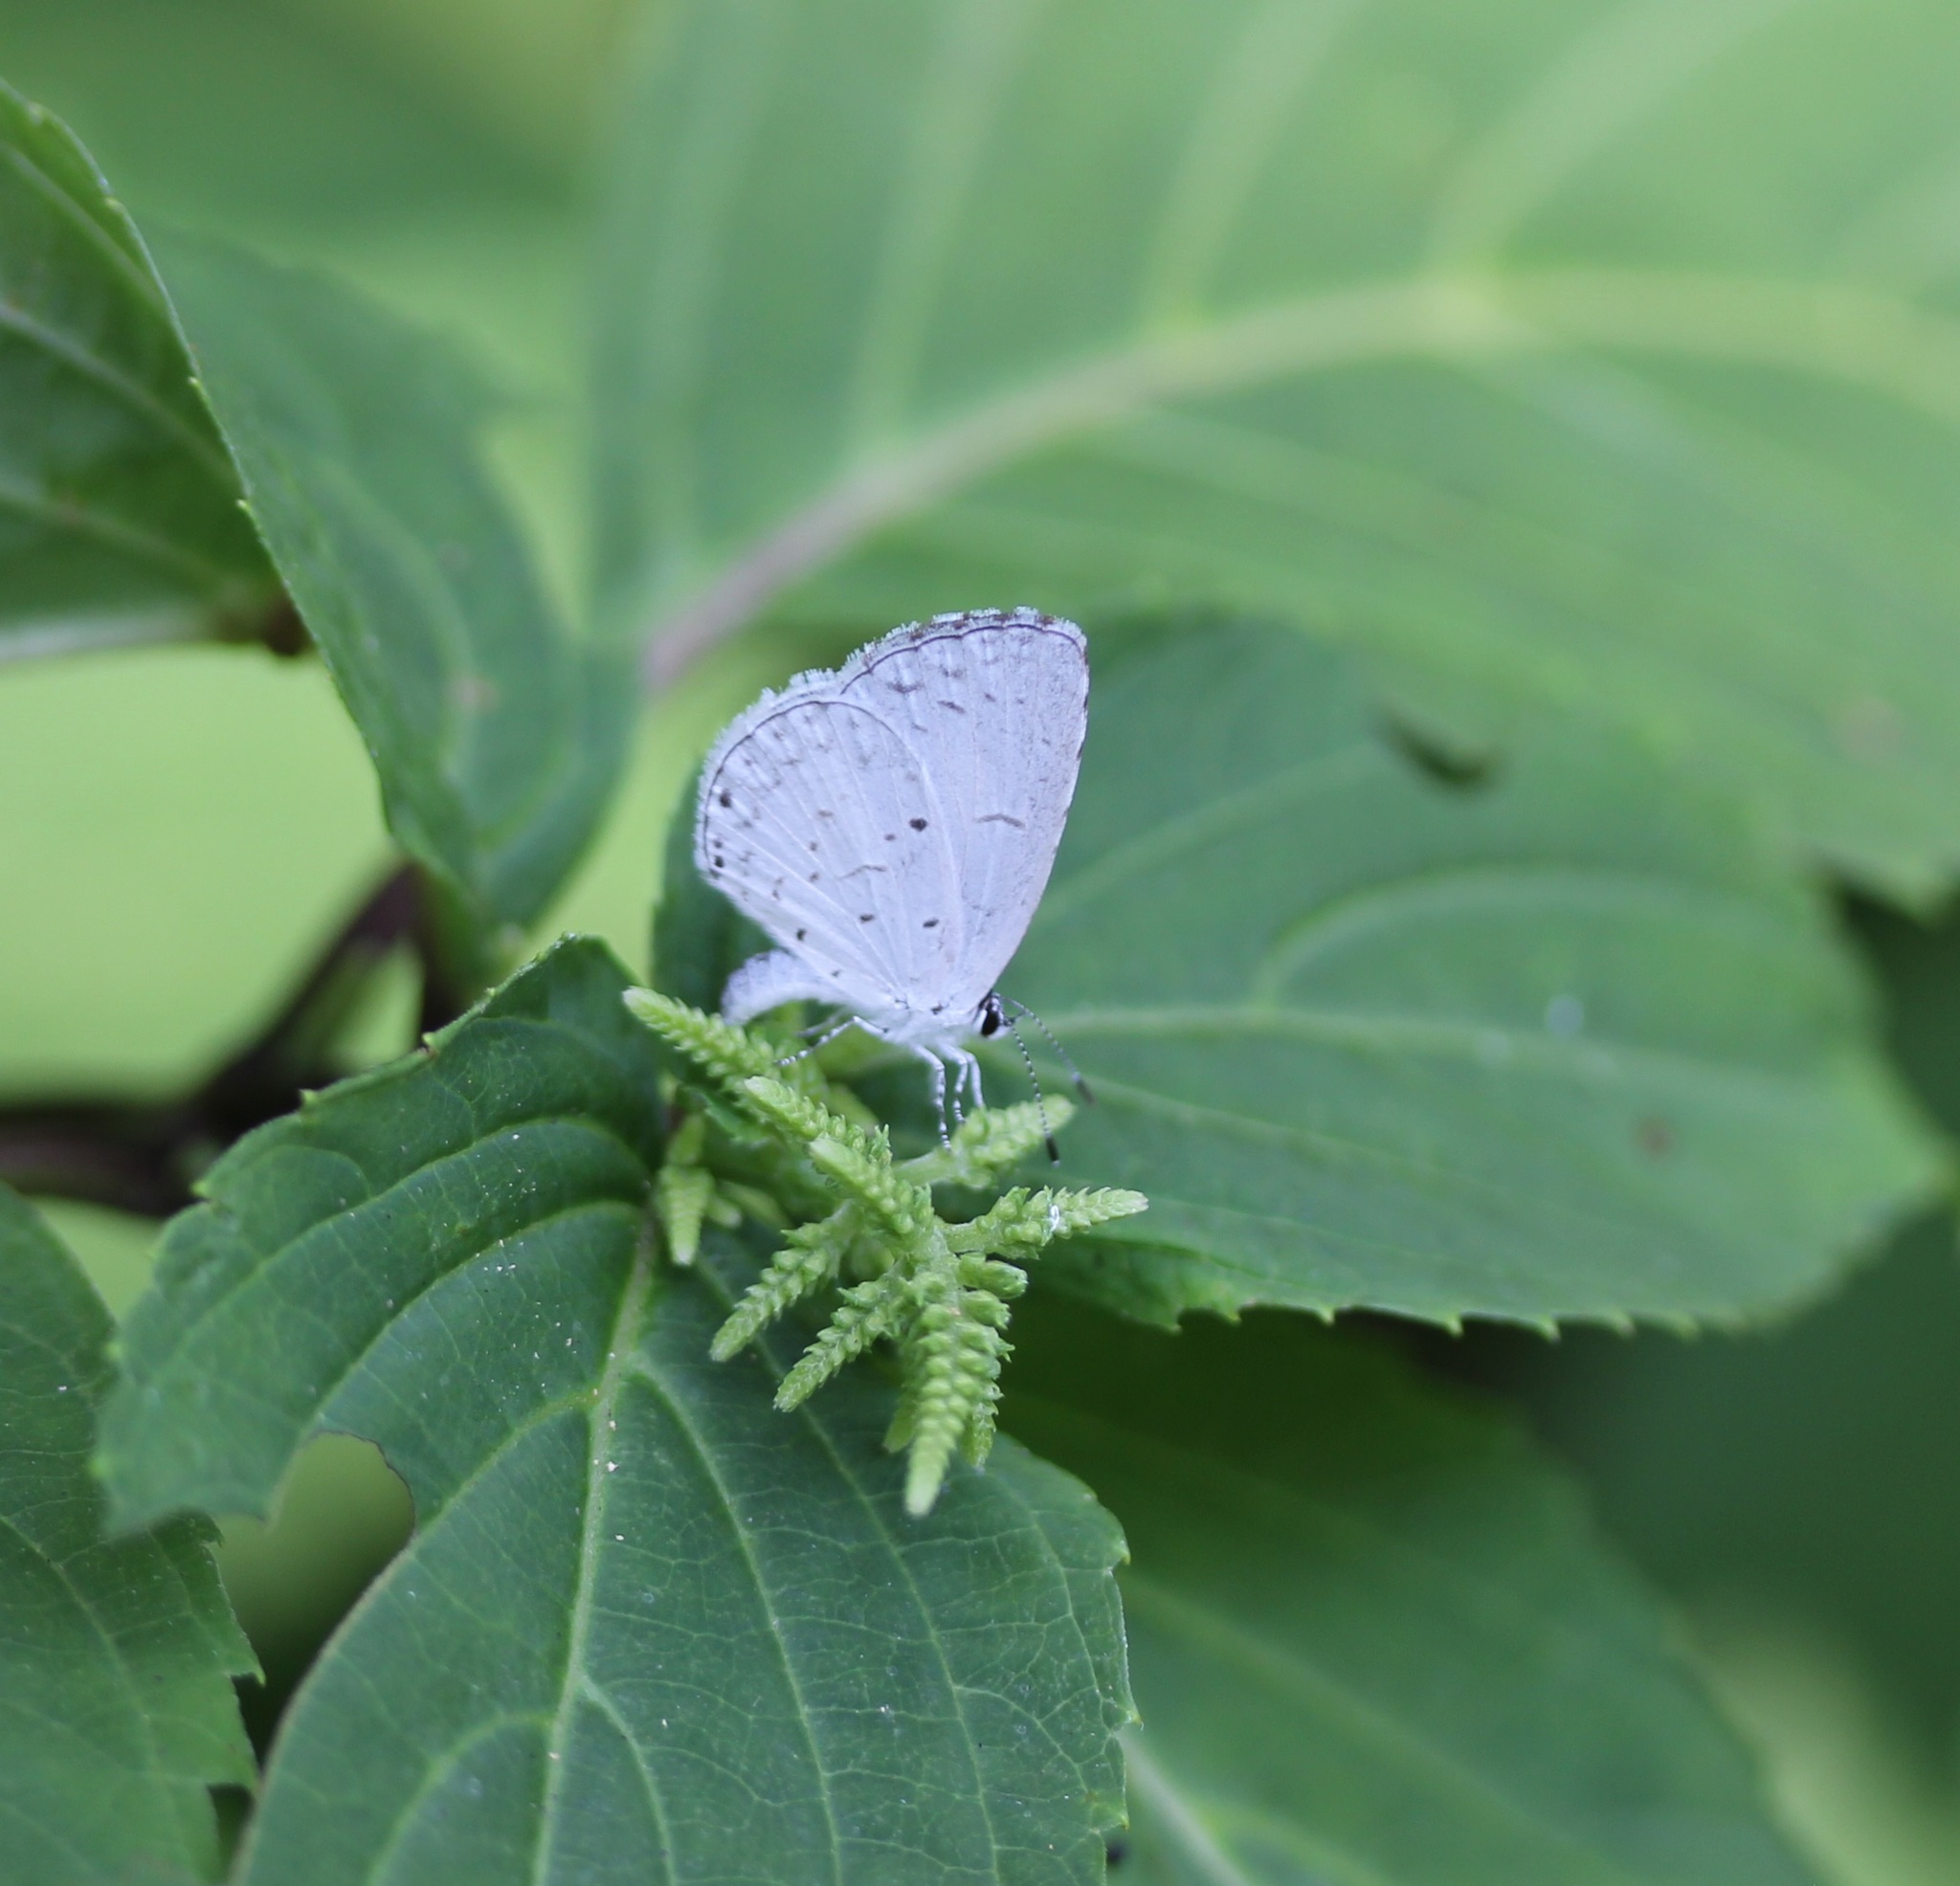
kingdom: Animalia
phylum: Arthropoda
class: Insecta
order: Lepidoptera
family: Lycaenidae
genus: Cyaniris
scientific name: Cyaniris neglecta
